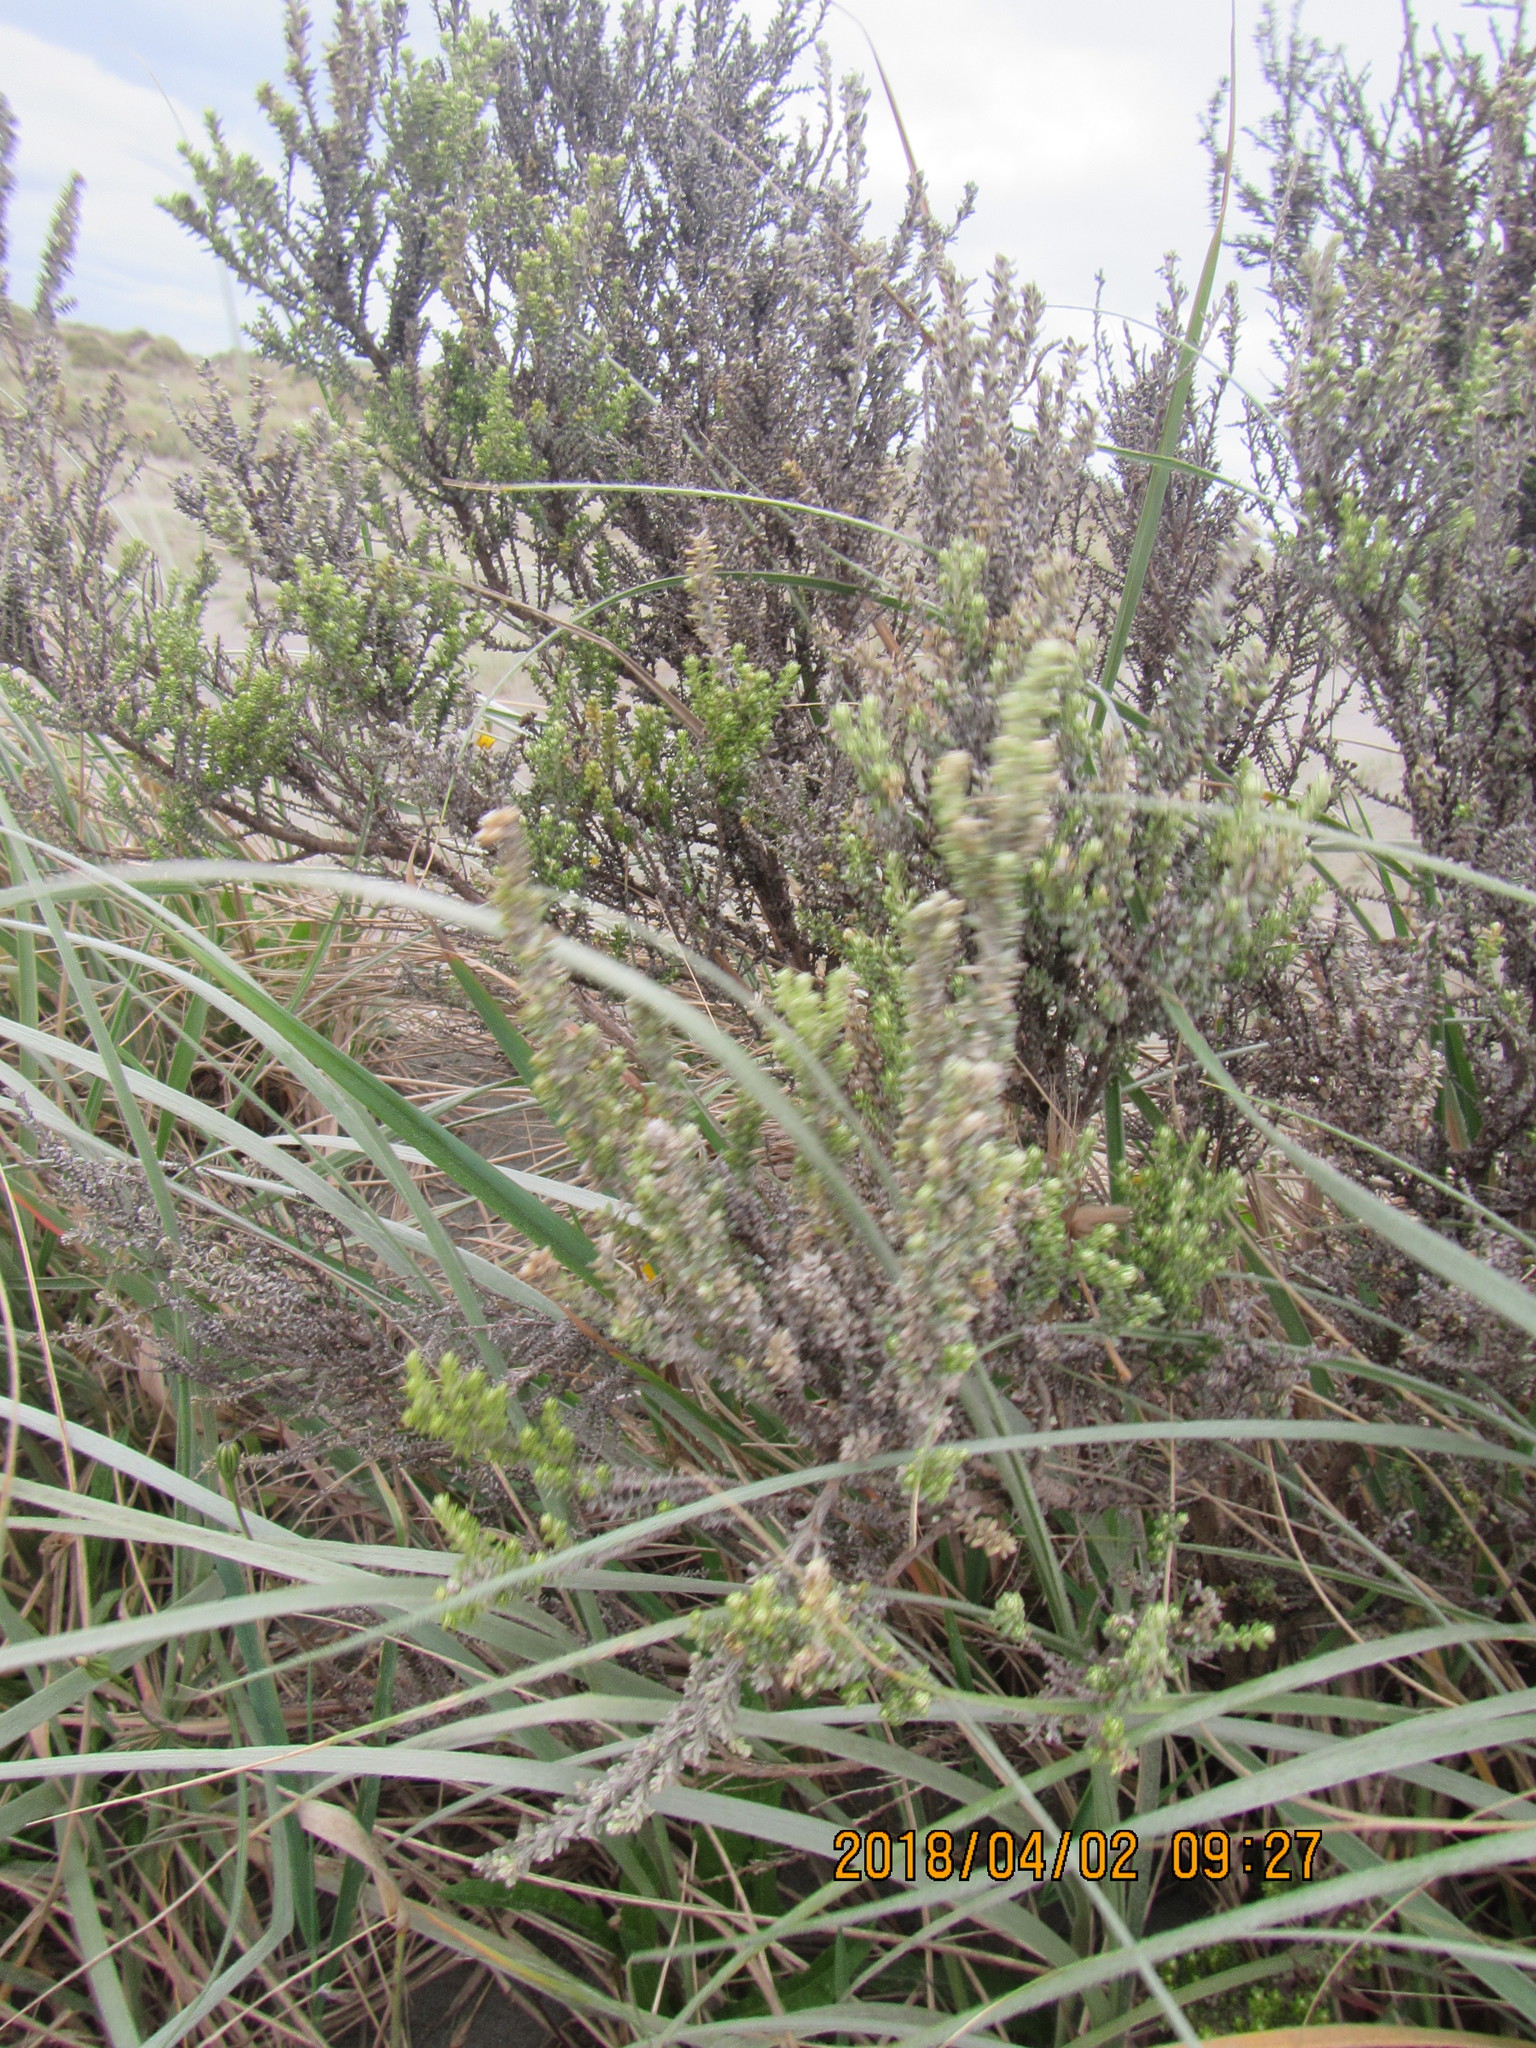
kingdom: Plantae
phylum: Tracheophyta
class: Magnoliopsida
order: Asterales
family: Asteraceae
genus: Ozothamnus
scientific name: Ozothamnus leptophyllus
